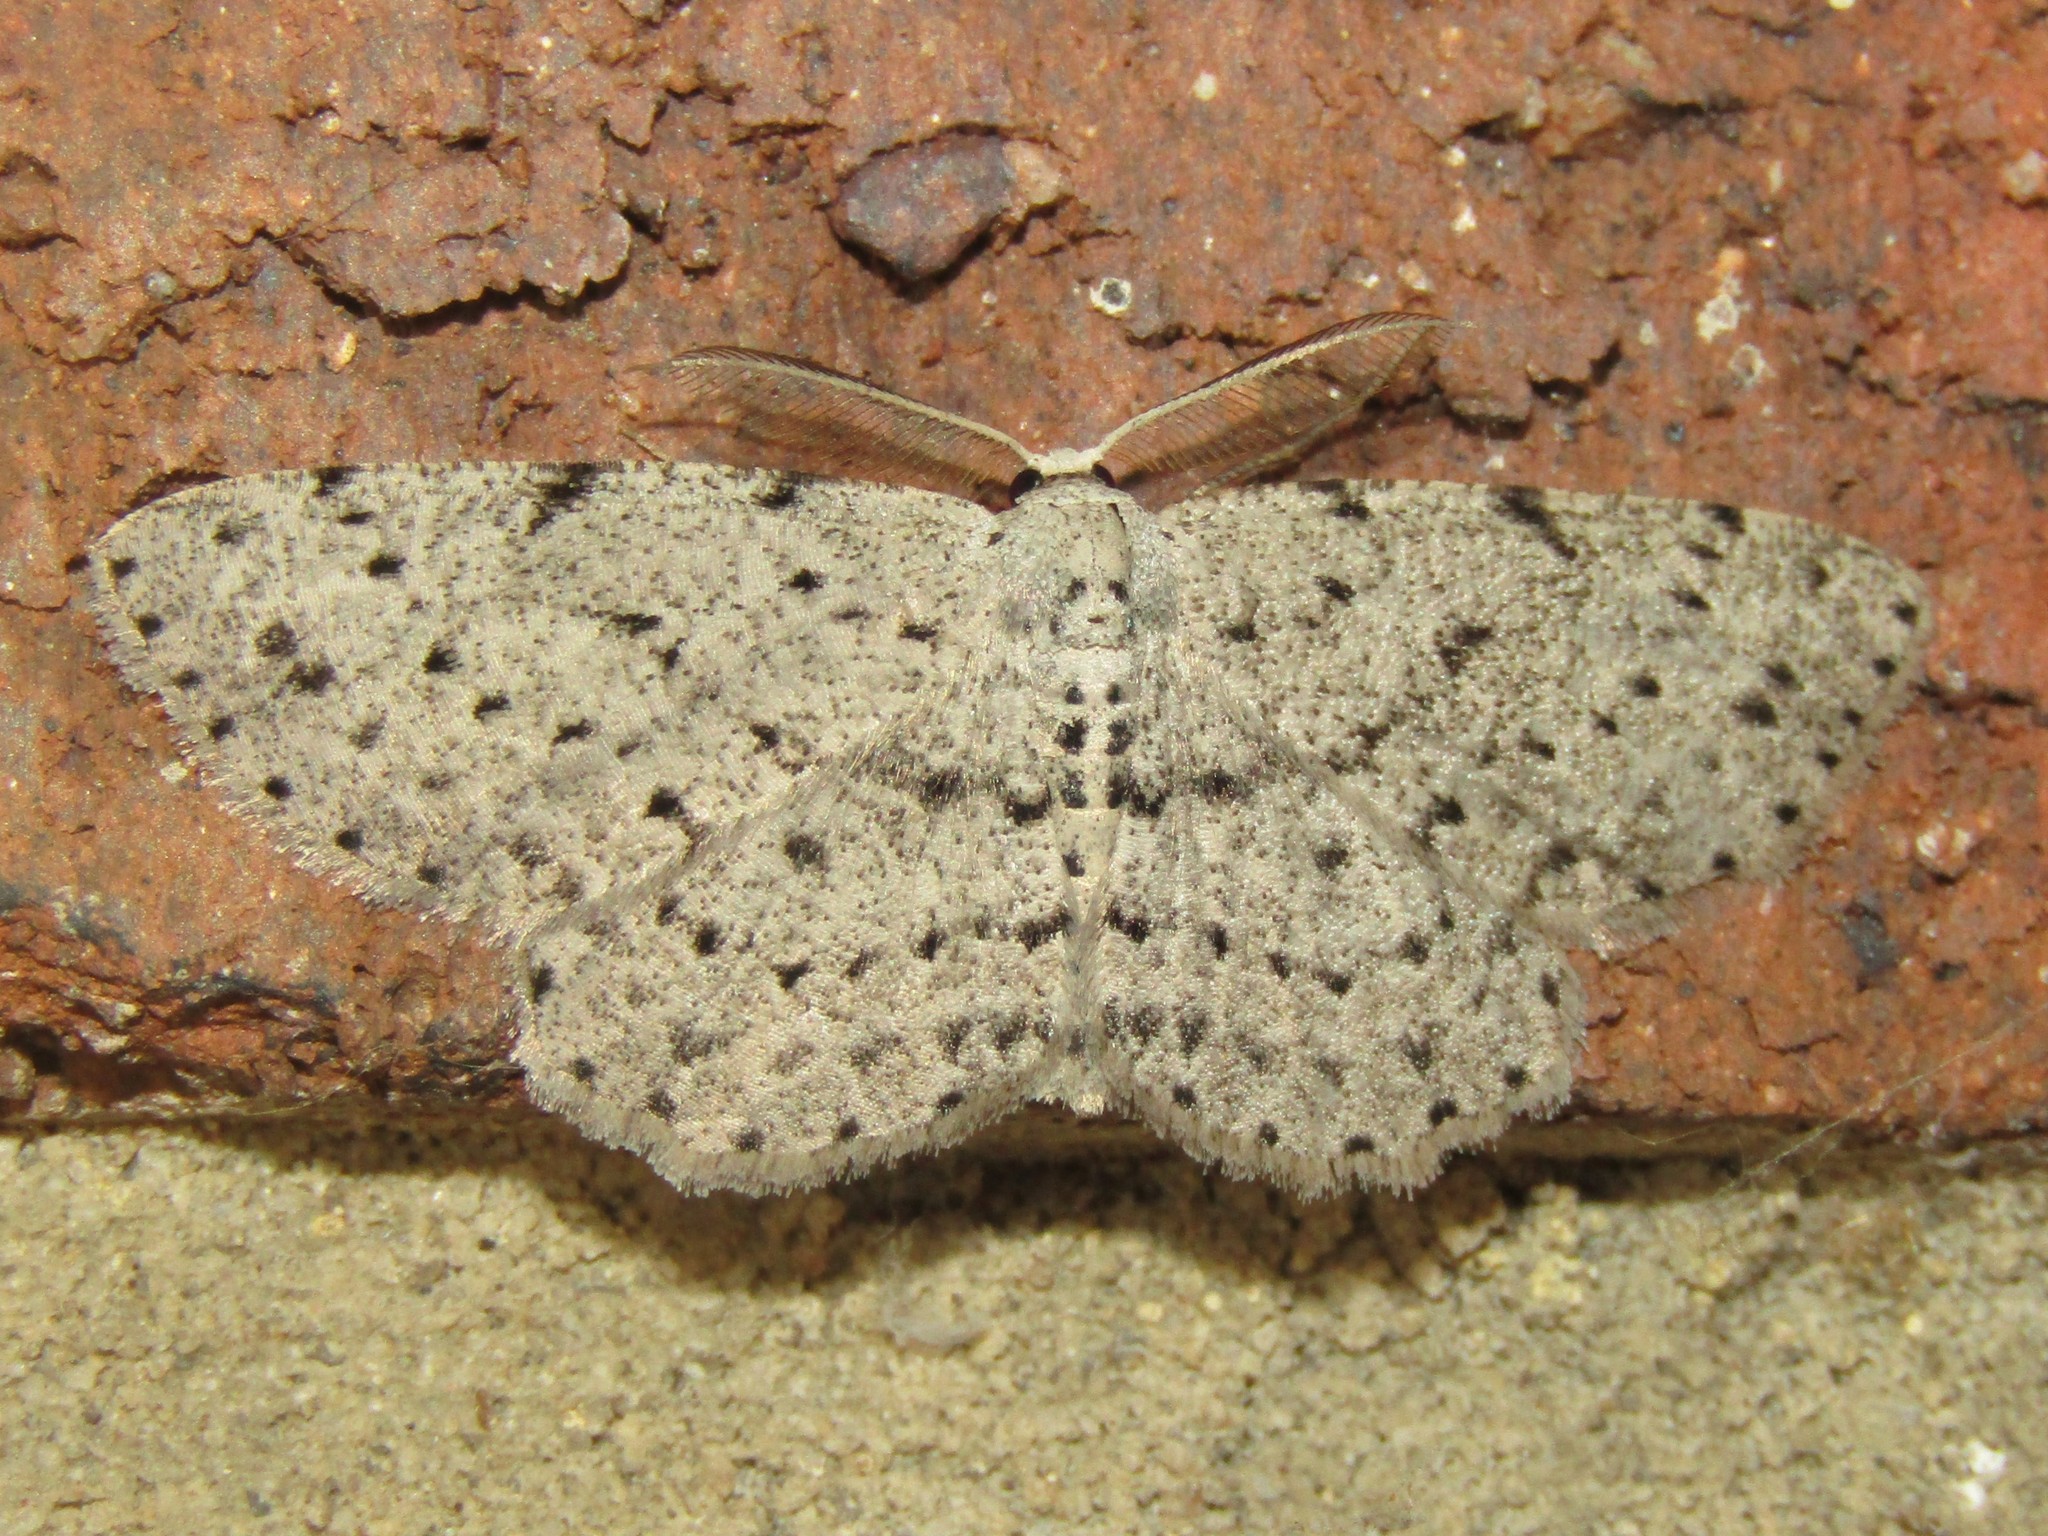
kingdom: Animalia
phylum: Arthropoda
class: Insecta
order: Lepidoptera
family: Geometridae
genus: Glena
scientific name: Glena cribrataria
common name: Dotted gray
